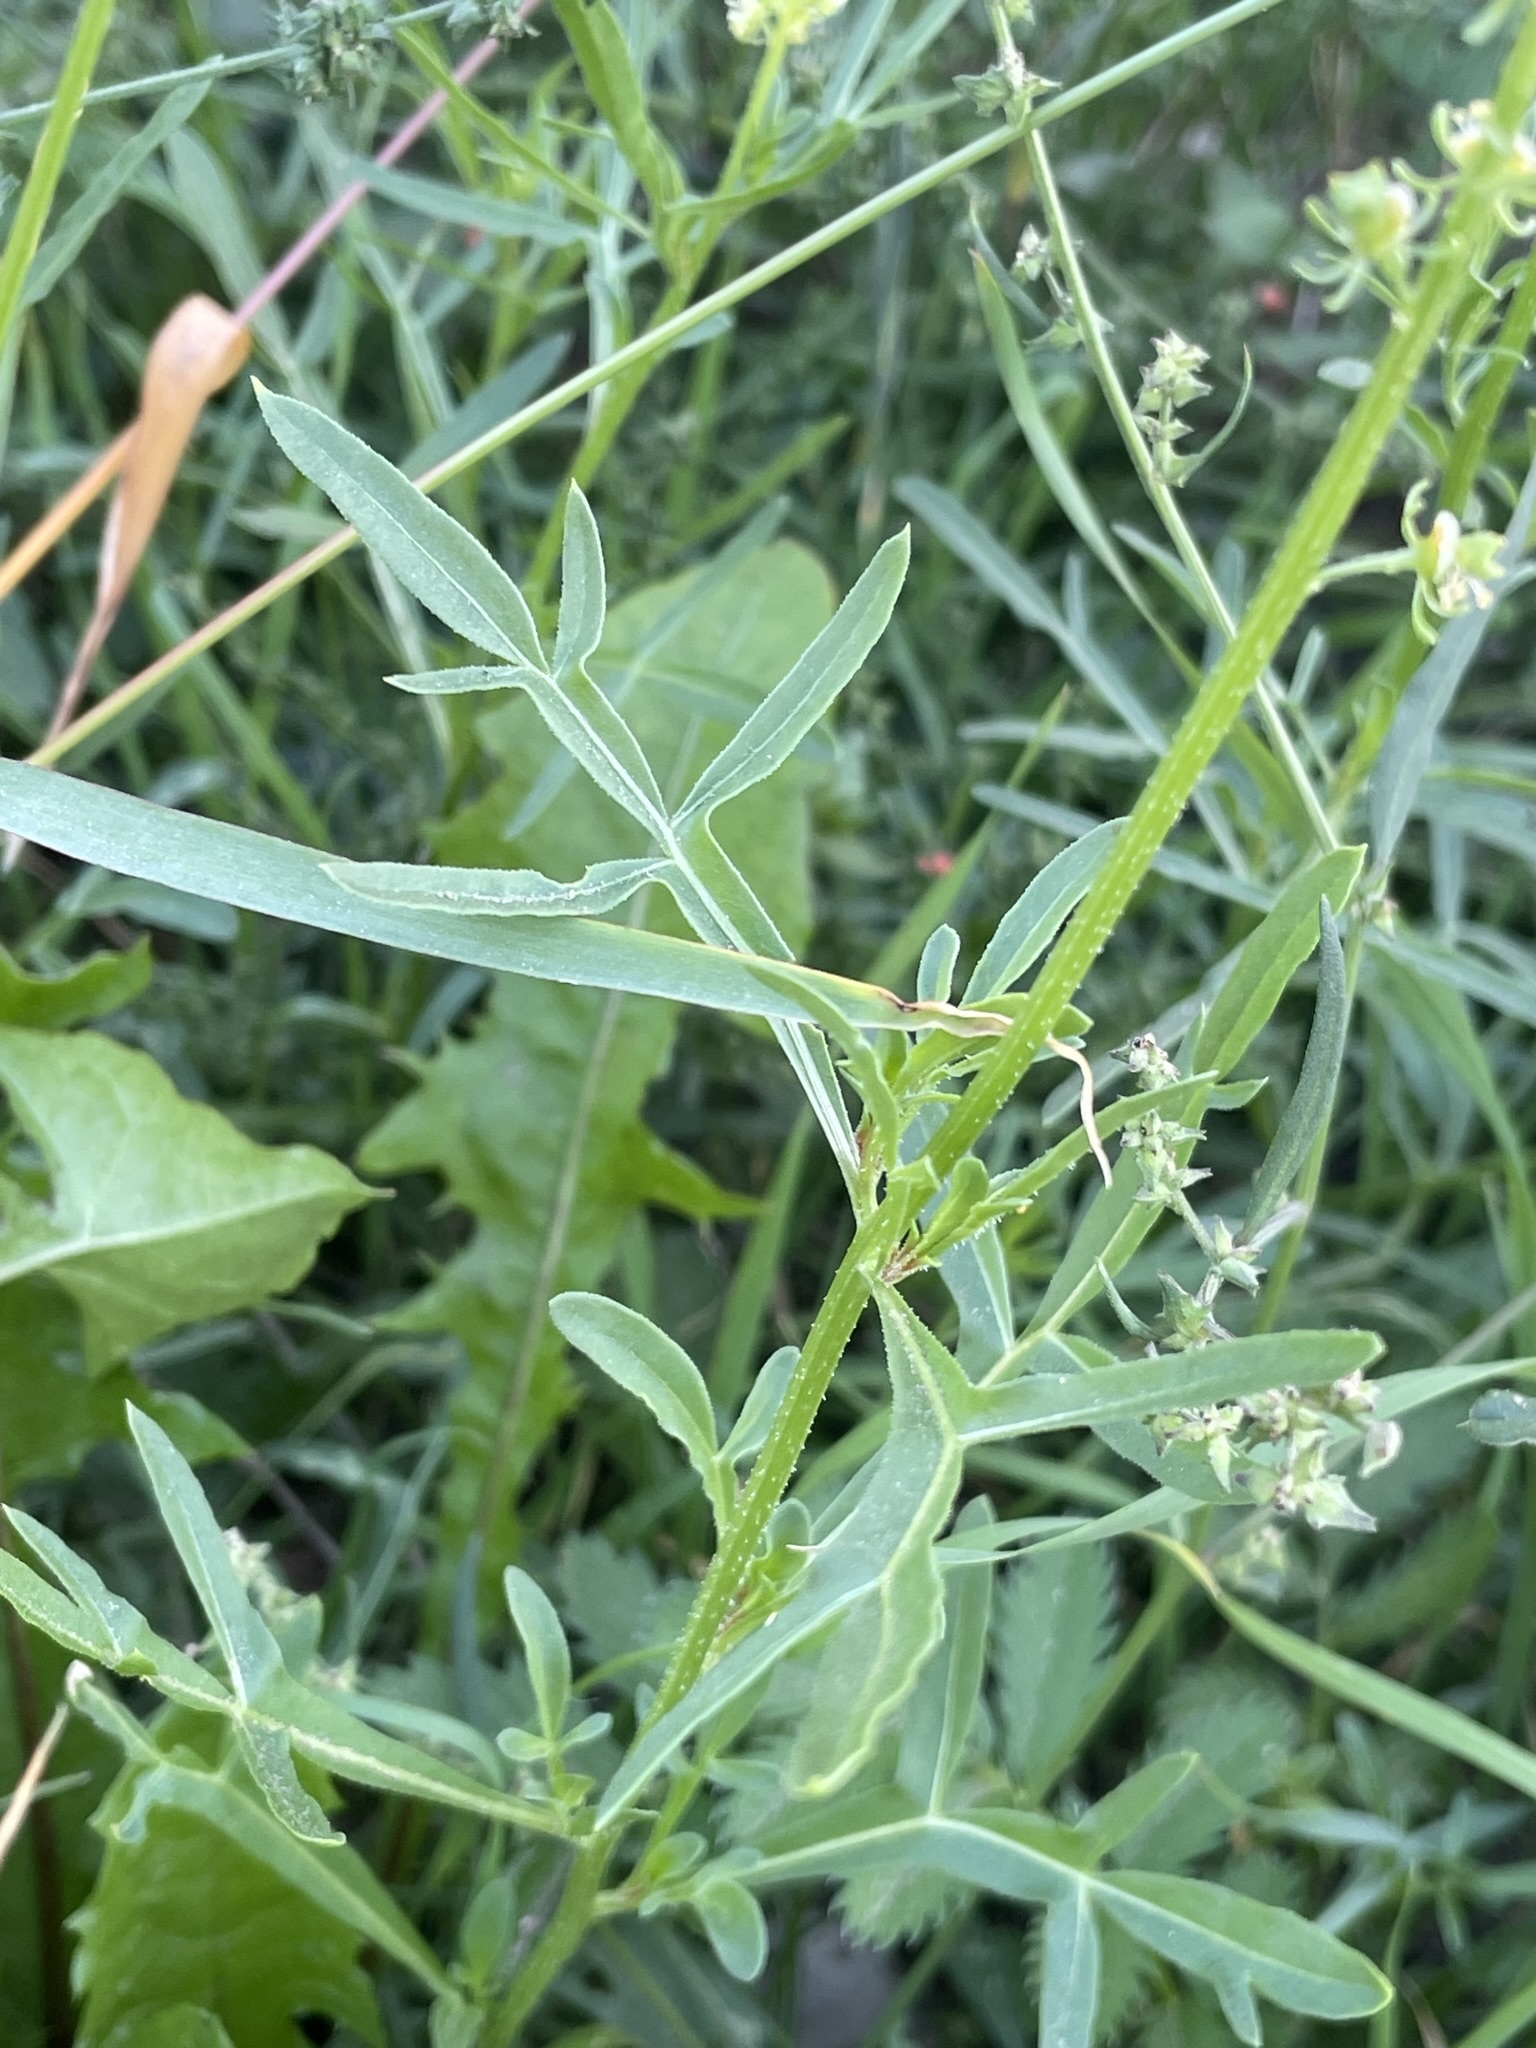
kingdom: Plantae
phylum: Tracheophyta
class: Magnoliopsida
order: Brassicales
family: Resedaceae
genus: Reseda
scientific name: Reseda lutea
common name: Wild mignonette
